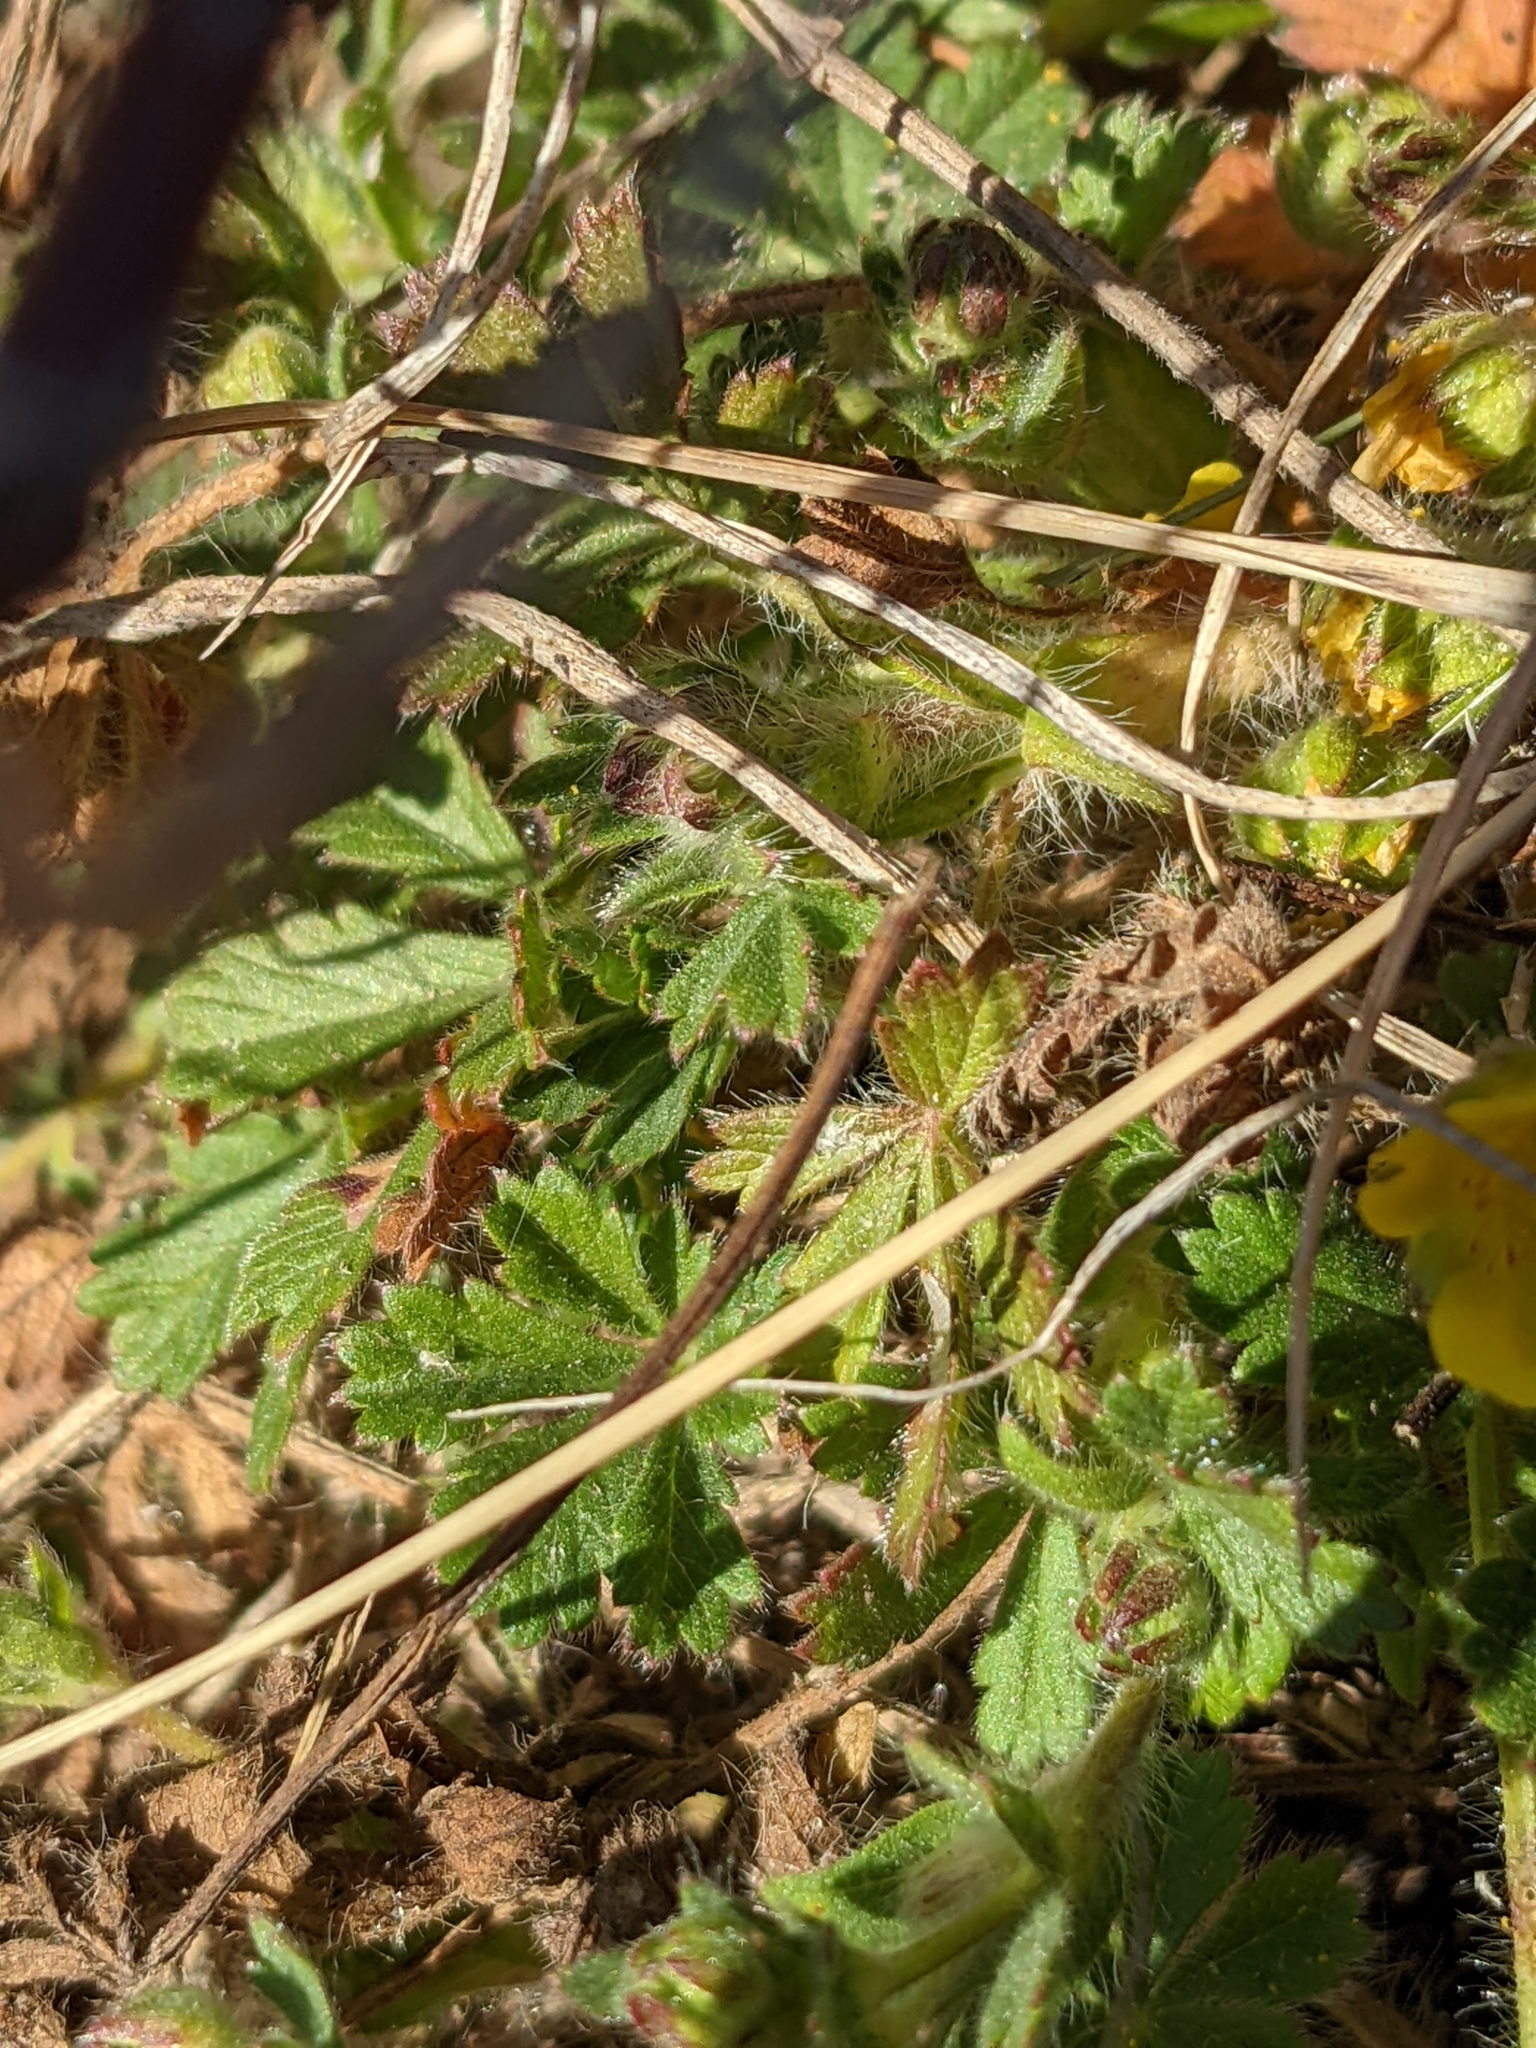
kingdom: Plantae
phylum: Tracheophyta
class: Magnoliopsida
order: Rosales
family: Rosaceae
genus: Potentilla
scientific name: Potentilla verna
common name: Spring cinquefoil
